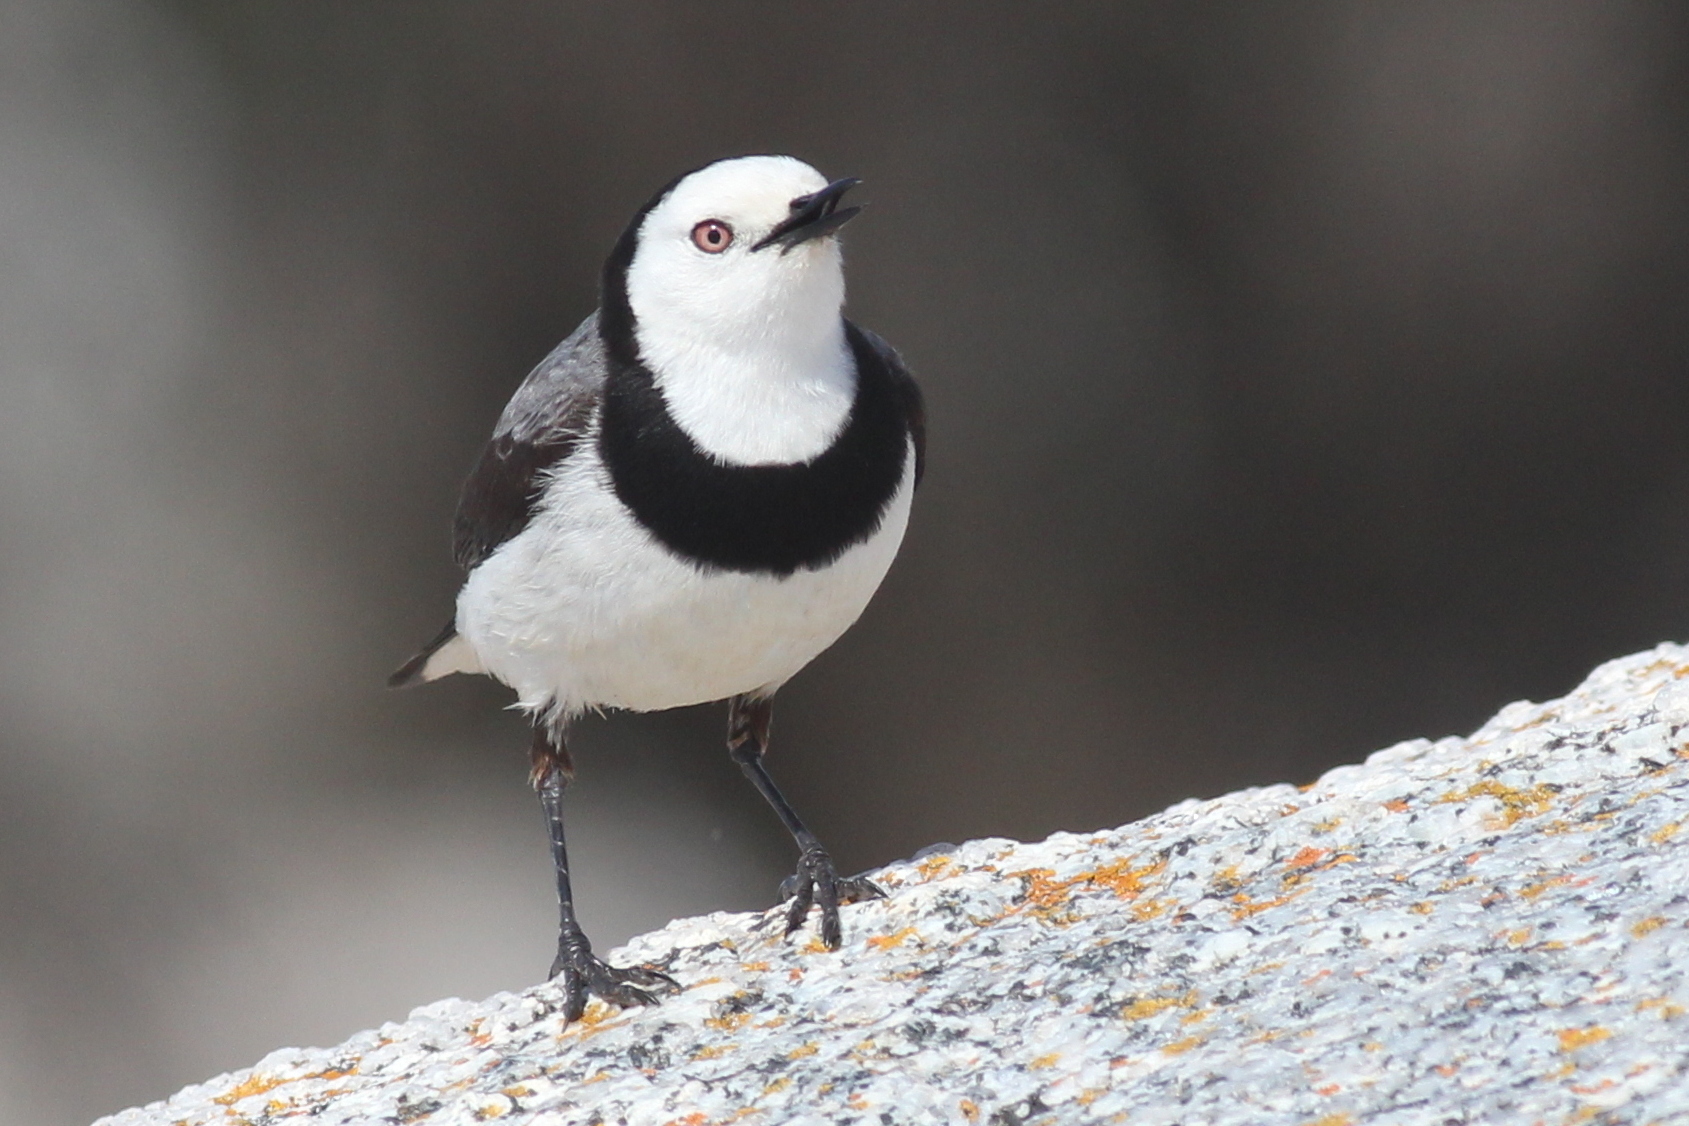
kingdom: Animalia
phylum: Chordata
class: Aves
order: Passeriformes
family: Meliphagidae
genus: Epthianura
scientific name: Epthianura albifrons
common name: White-fronted chat
